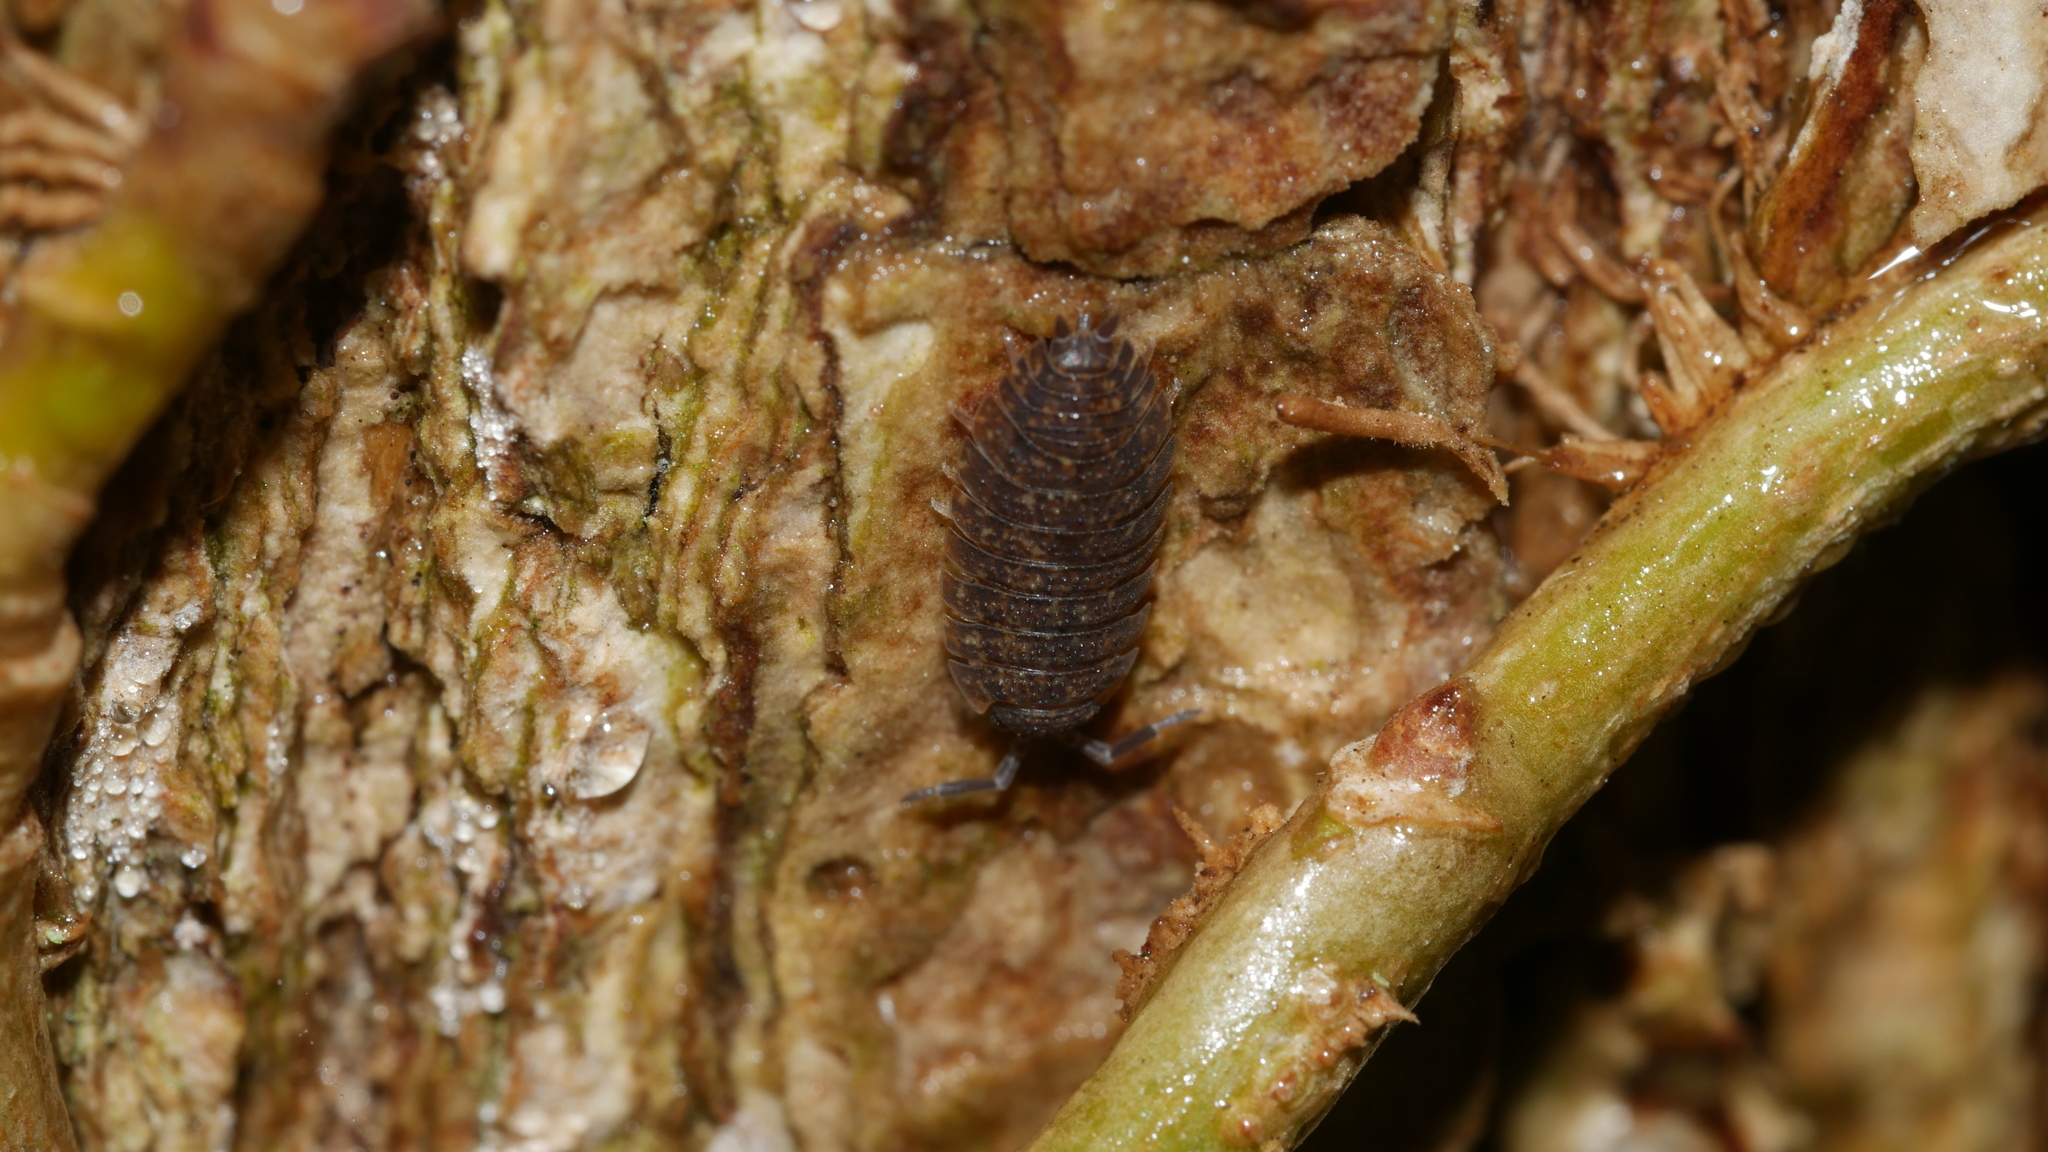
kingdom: Animalia
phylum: Arthropoda
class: Malacostraca
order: Isopoda
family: Porcellionidae
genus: Porcellio
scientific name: Porcellio scaber
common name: Common rough woodlouse
